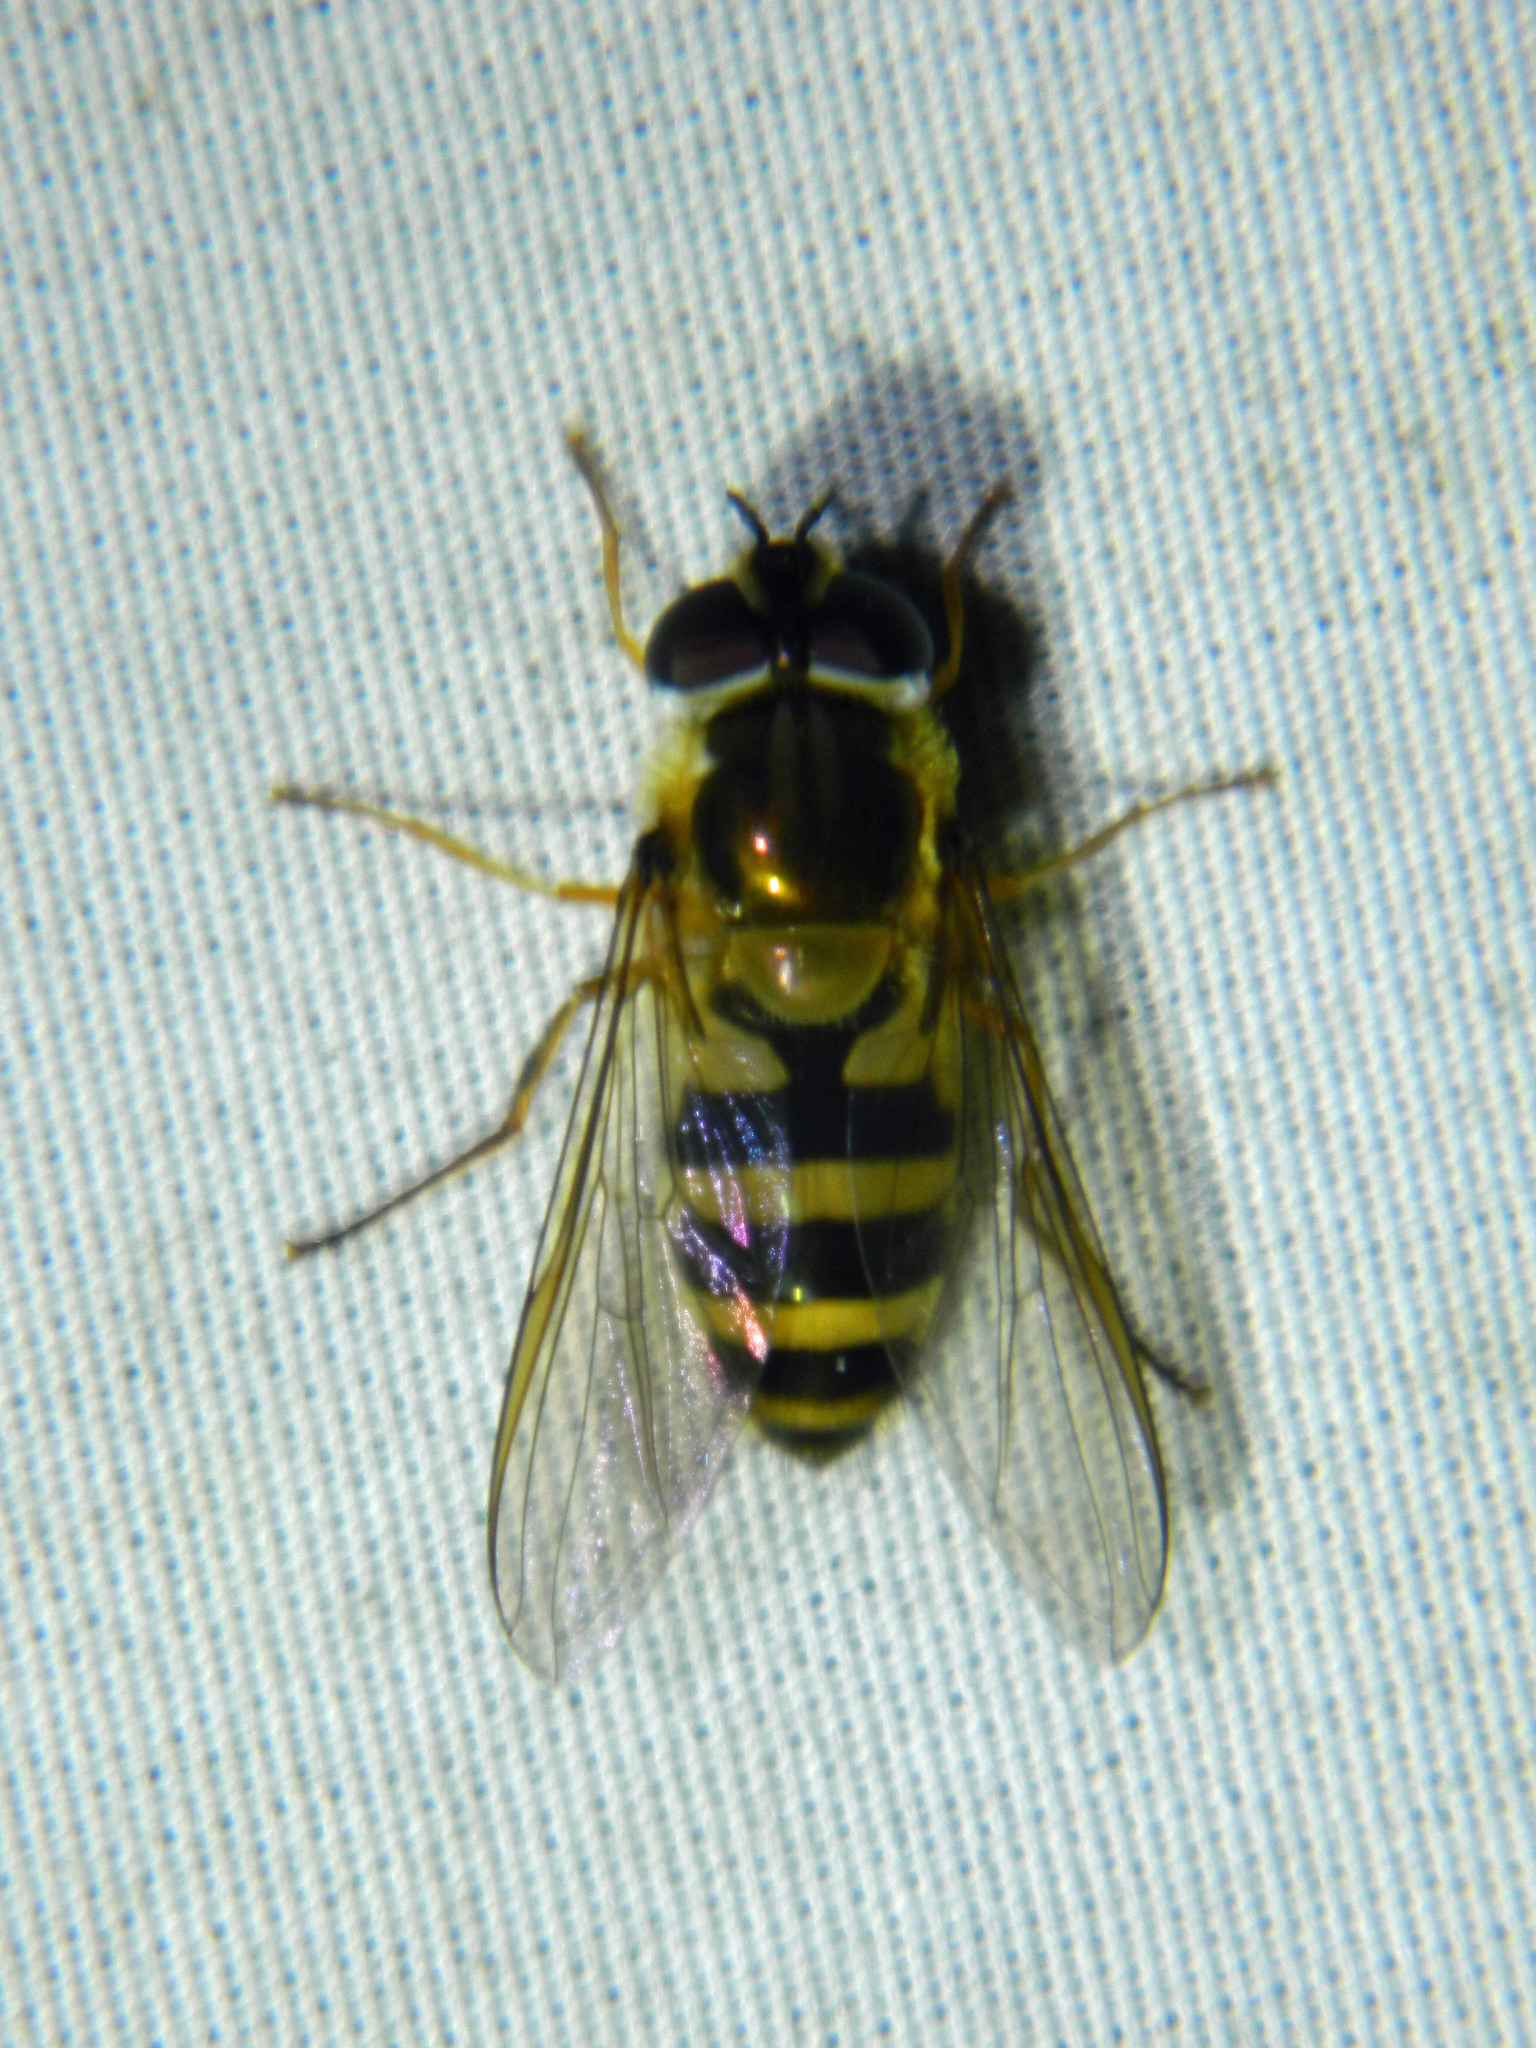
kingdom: Animalia
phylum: Arthropoda
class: Insecta
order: Diptera
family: Syrphidae
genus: Epistrophe
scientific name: Epistrophe grossulariae
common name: Black-horned smoothtail
